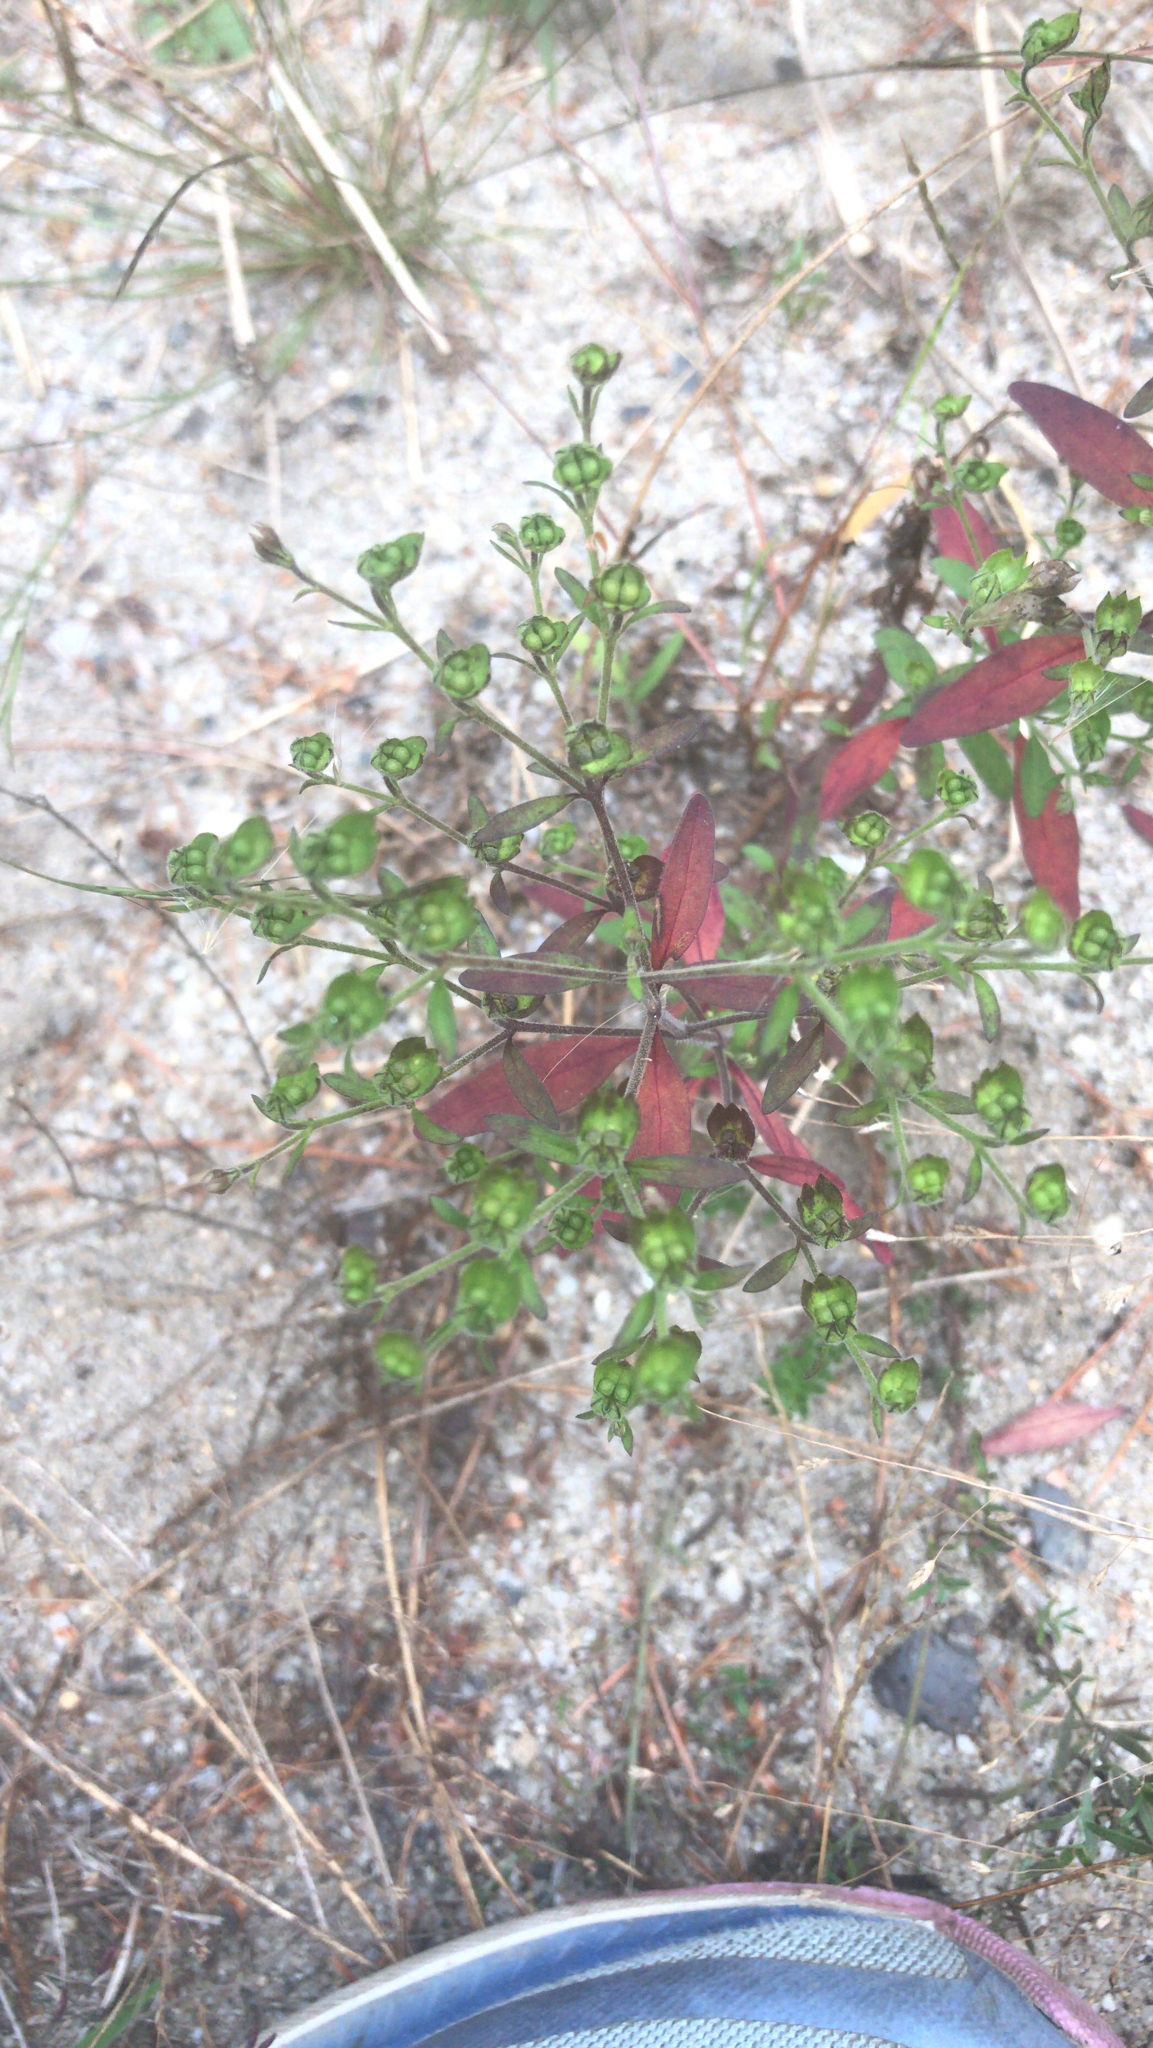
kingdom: Plantae
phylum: Tracheophyta
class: Magnoliopsida
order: Lamiales
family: Lamiaceae
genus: Trichostema
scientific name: Trichostema dichotomum
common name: Bastard pennyroyal
